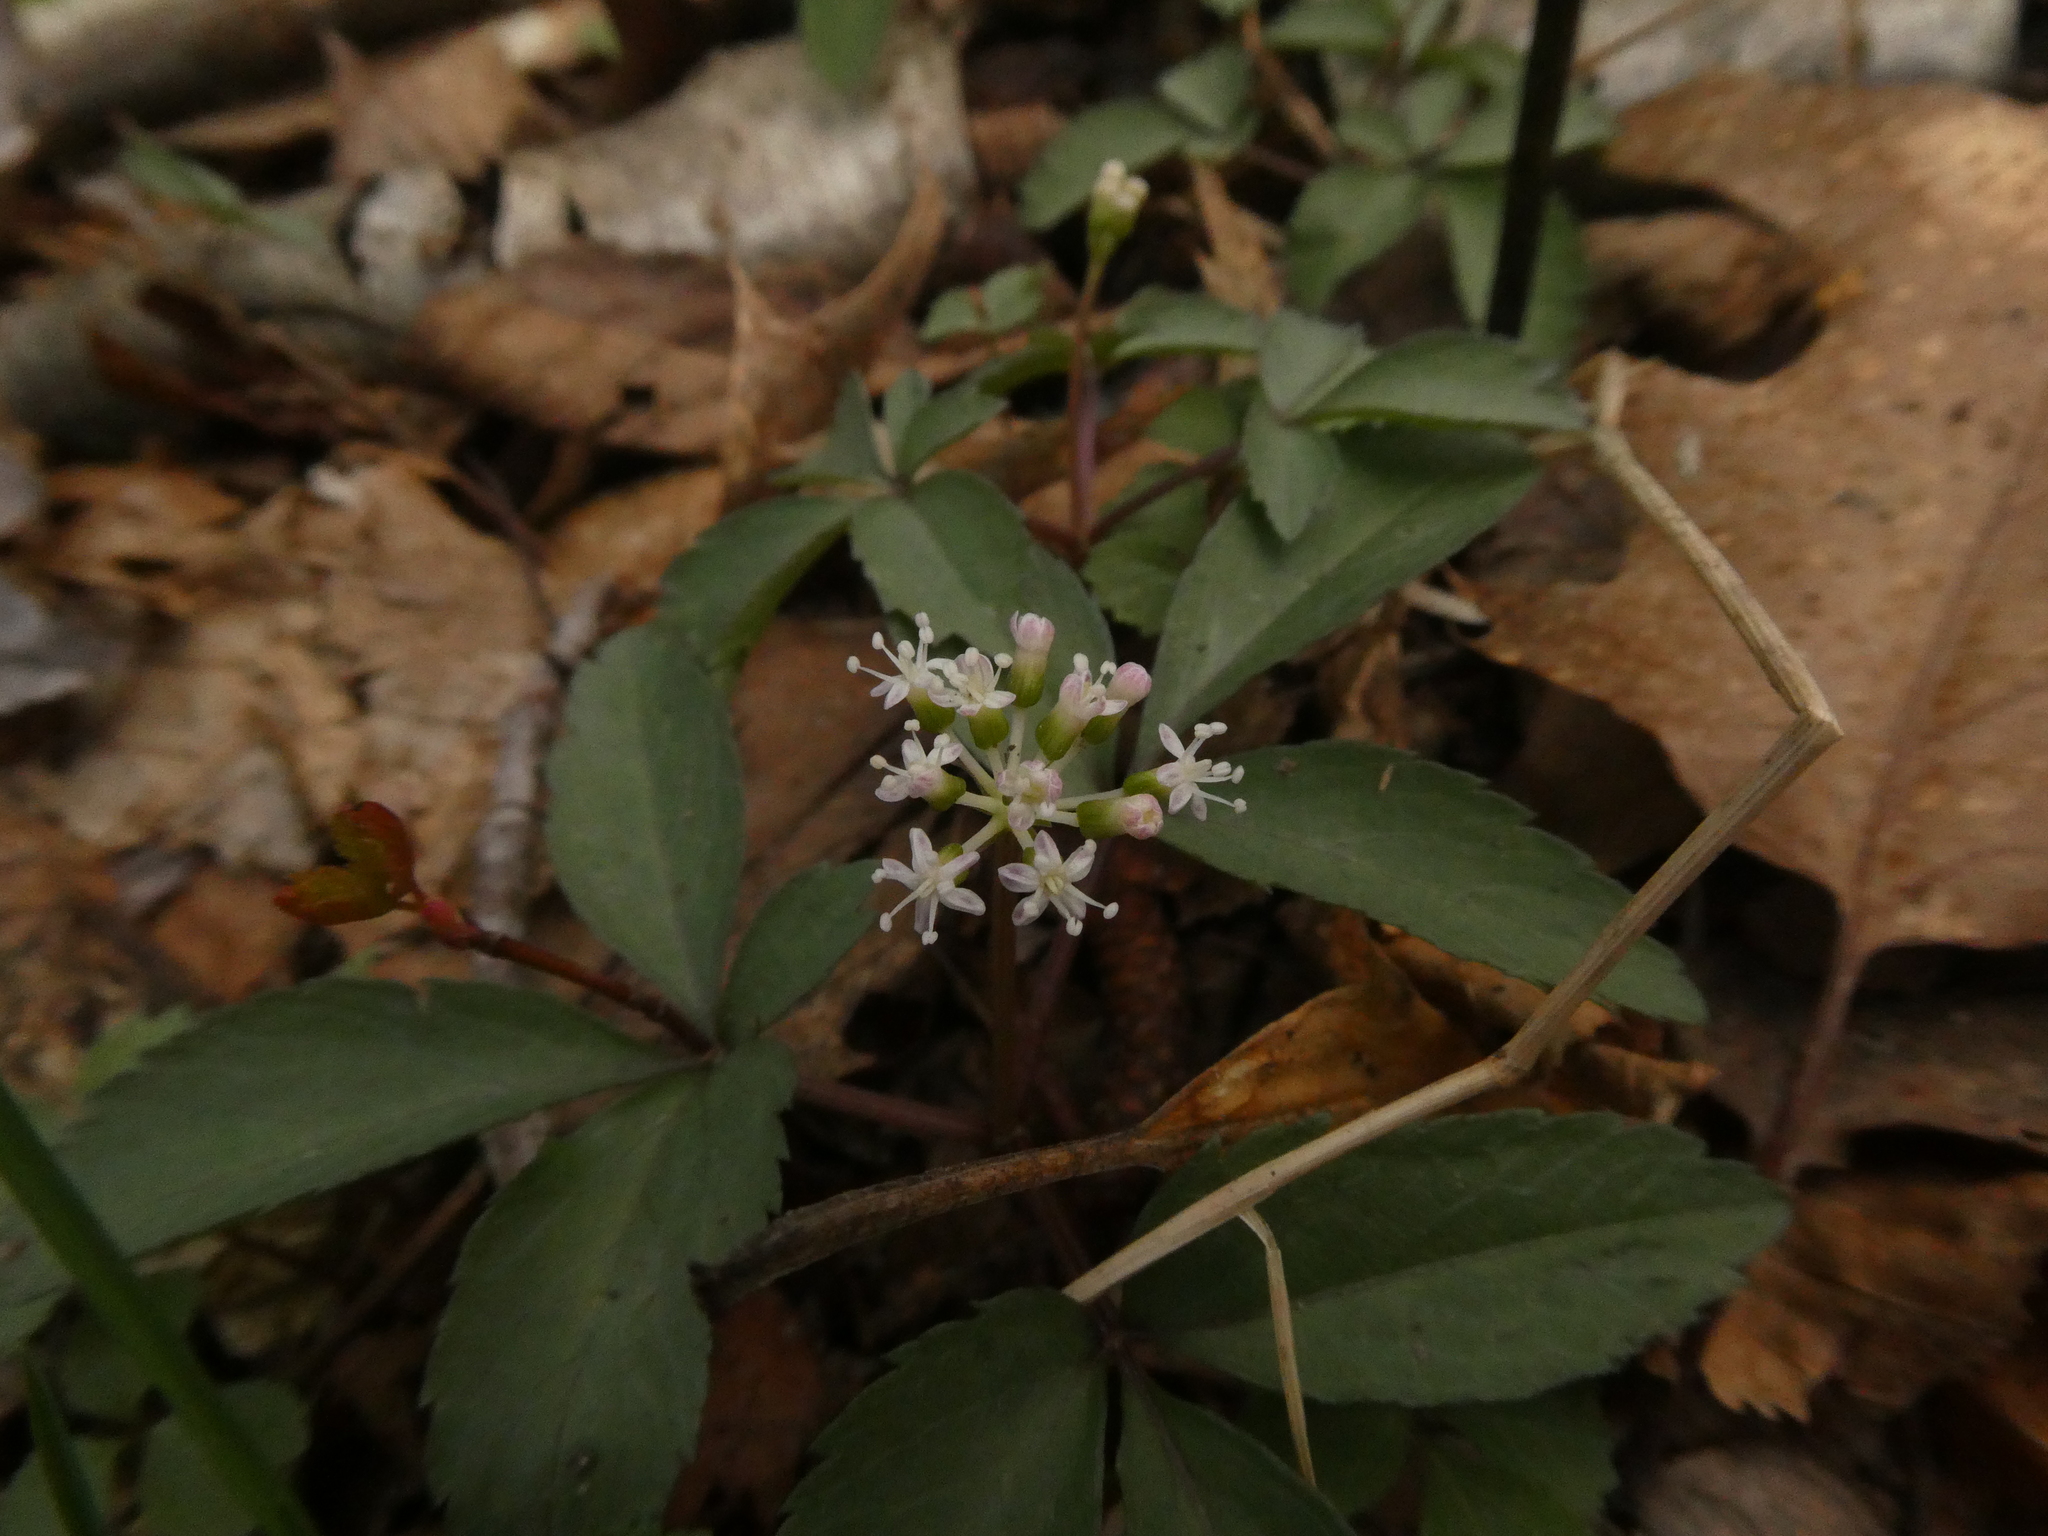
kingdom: Plantae
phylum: Tracheophyta
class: Magnoliopsida
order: Apiales
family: Araliaceae
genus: Panax
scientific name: Panax trifolius
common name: Dwarf ginseng
